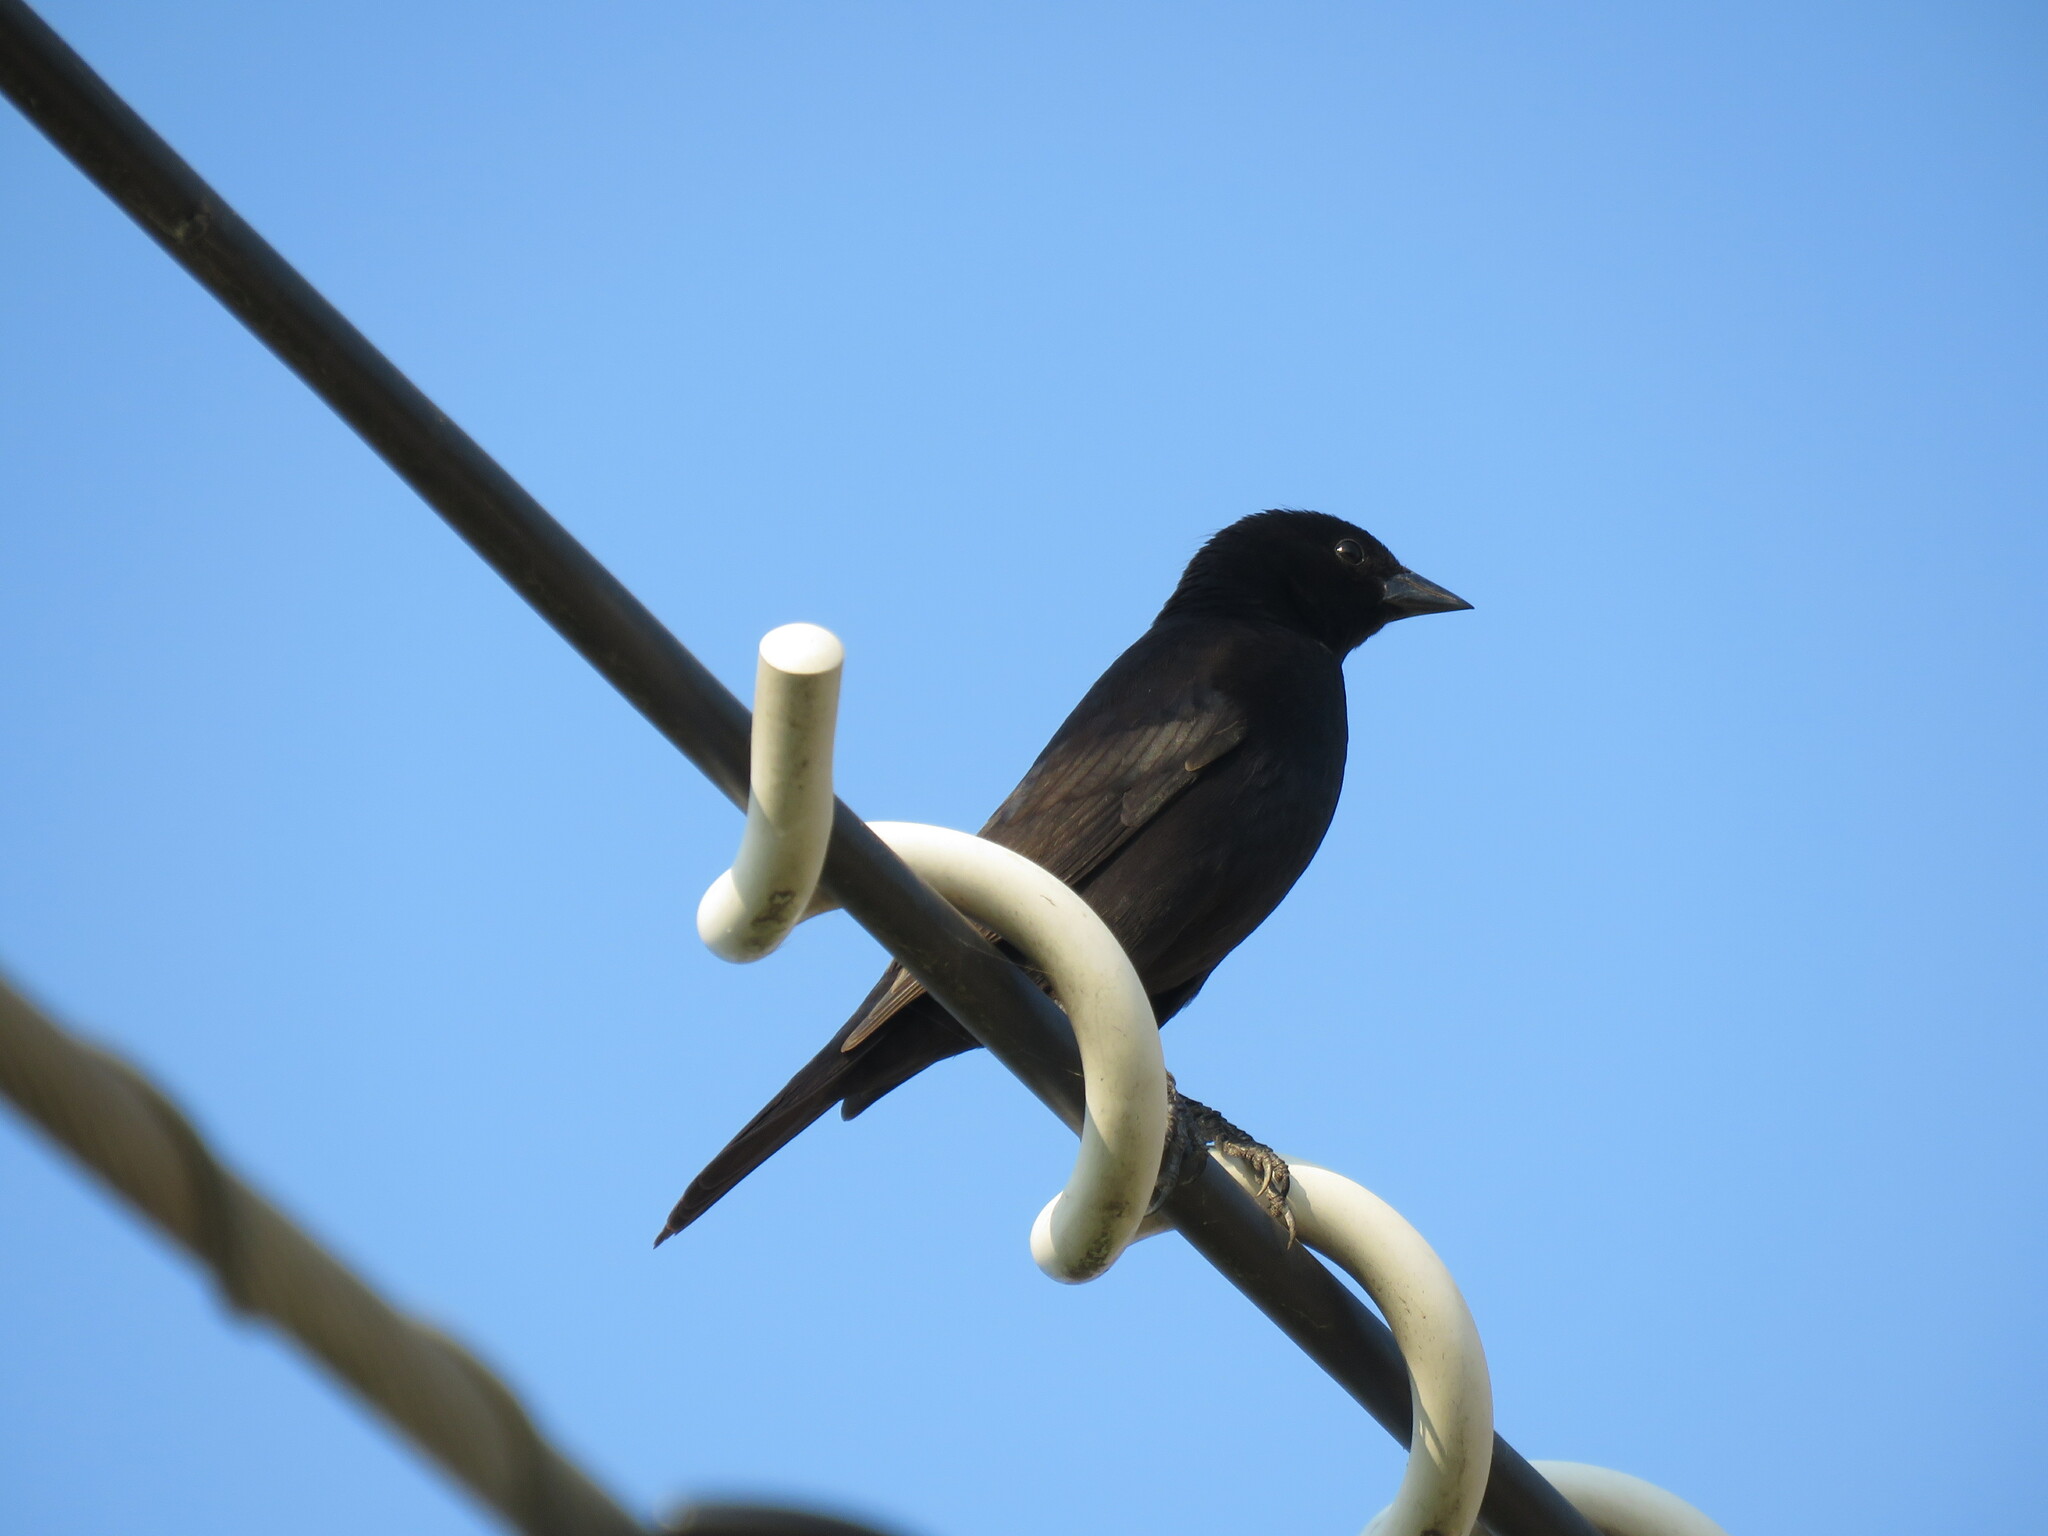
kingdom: Animalia
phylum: Chordata
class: Aves
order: Passeriformes
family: Icteridae
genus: Molothrus
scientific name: Molothrus bonariensis
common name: Shiny cowbird
